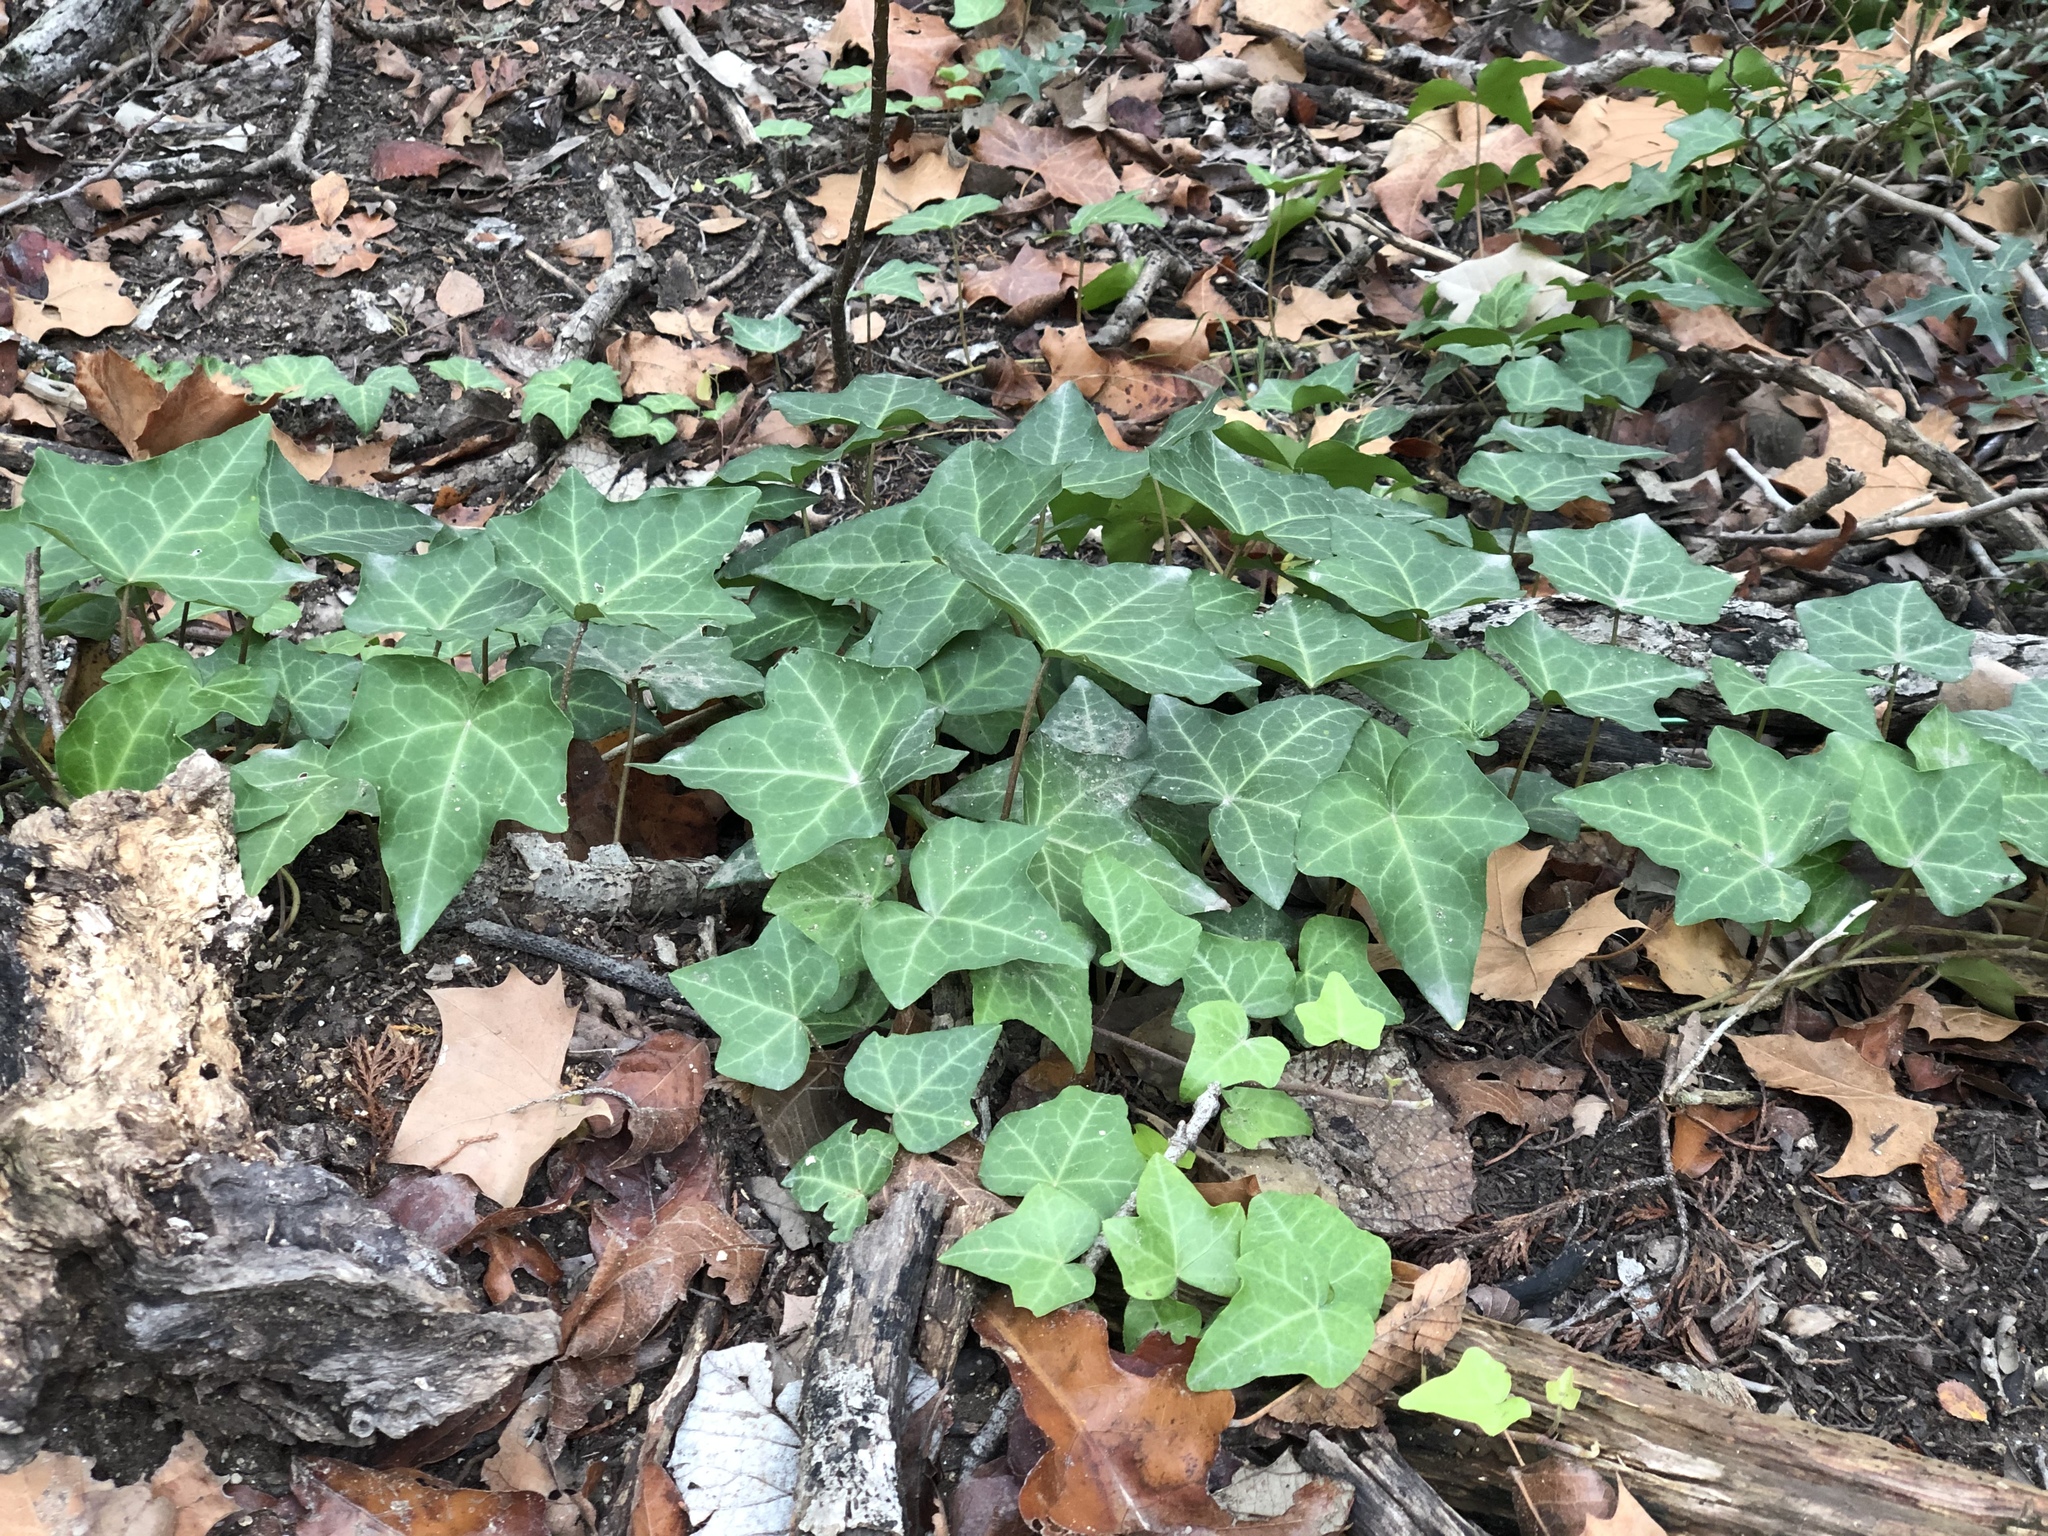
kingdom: Plantae
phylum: Tracheophyta
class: Magnoliopsida
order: Apiales
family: Araliaceae
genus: Hedera
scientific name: Hedera helix
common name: Ivy
